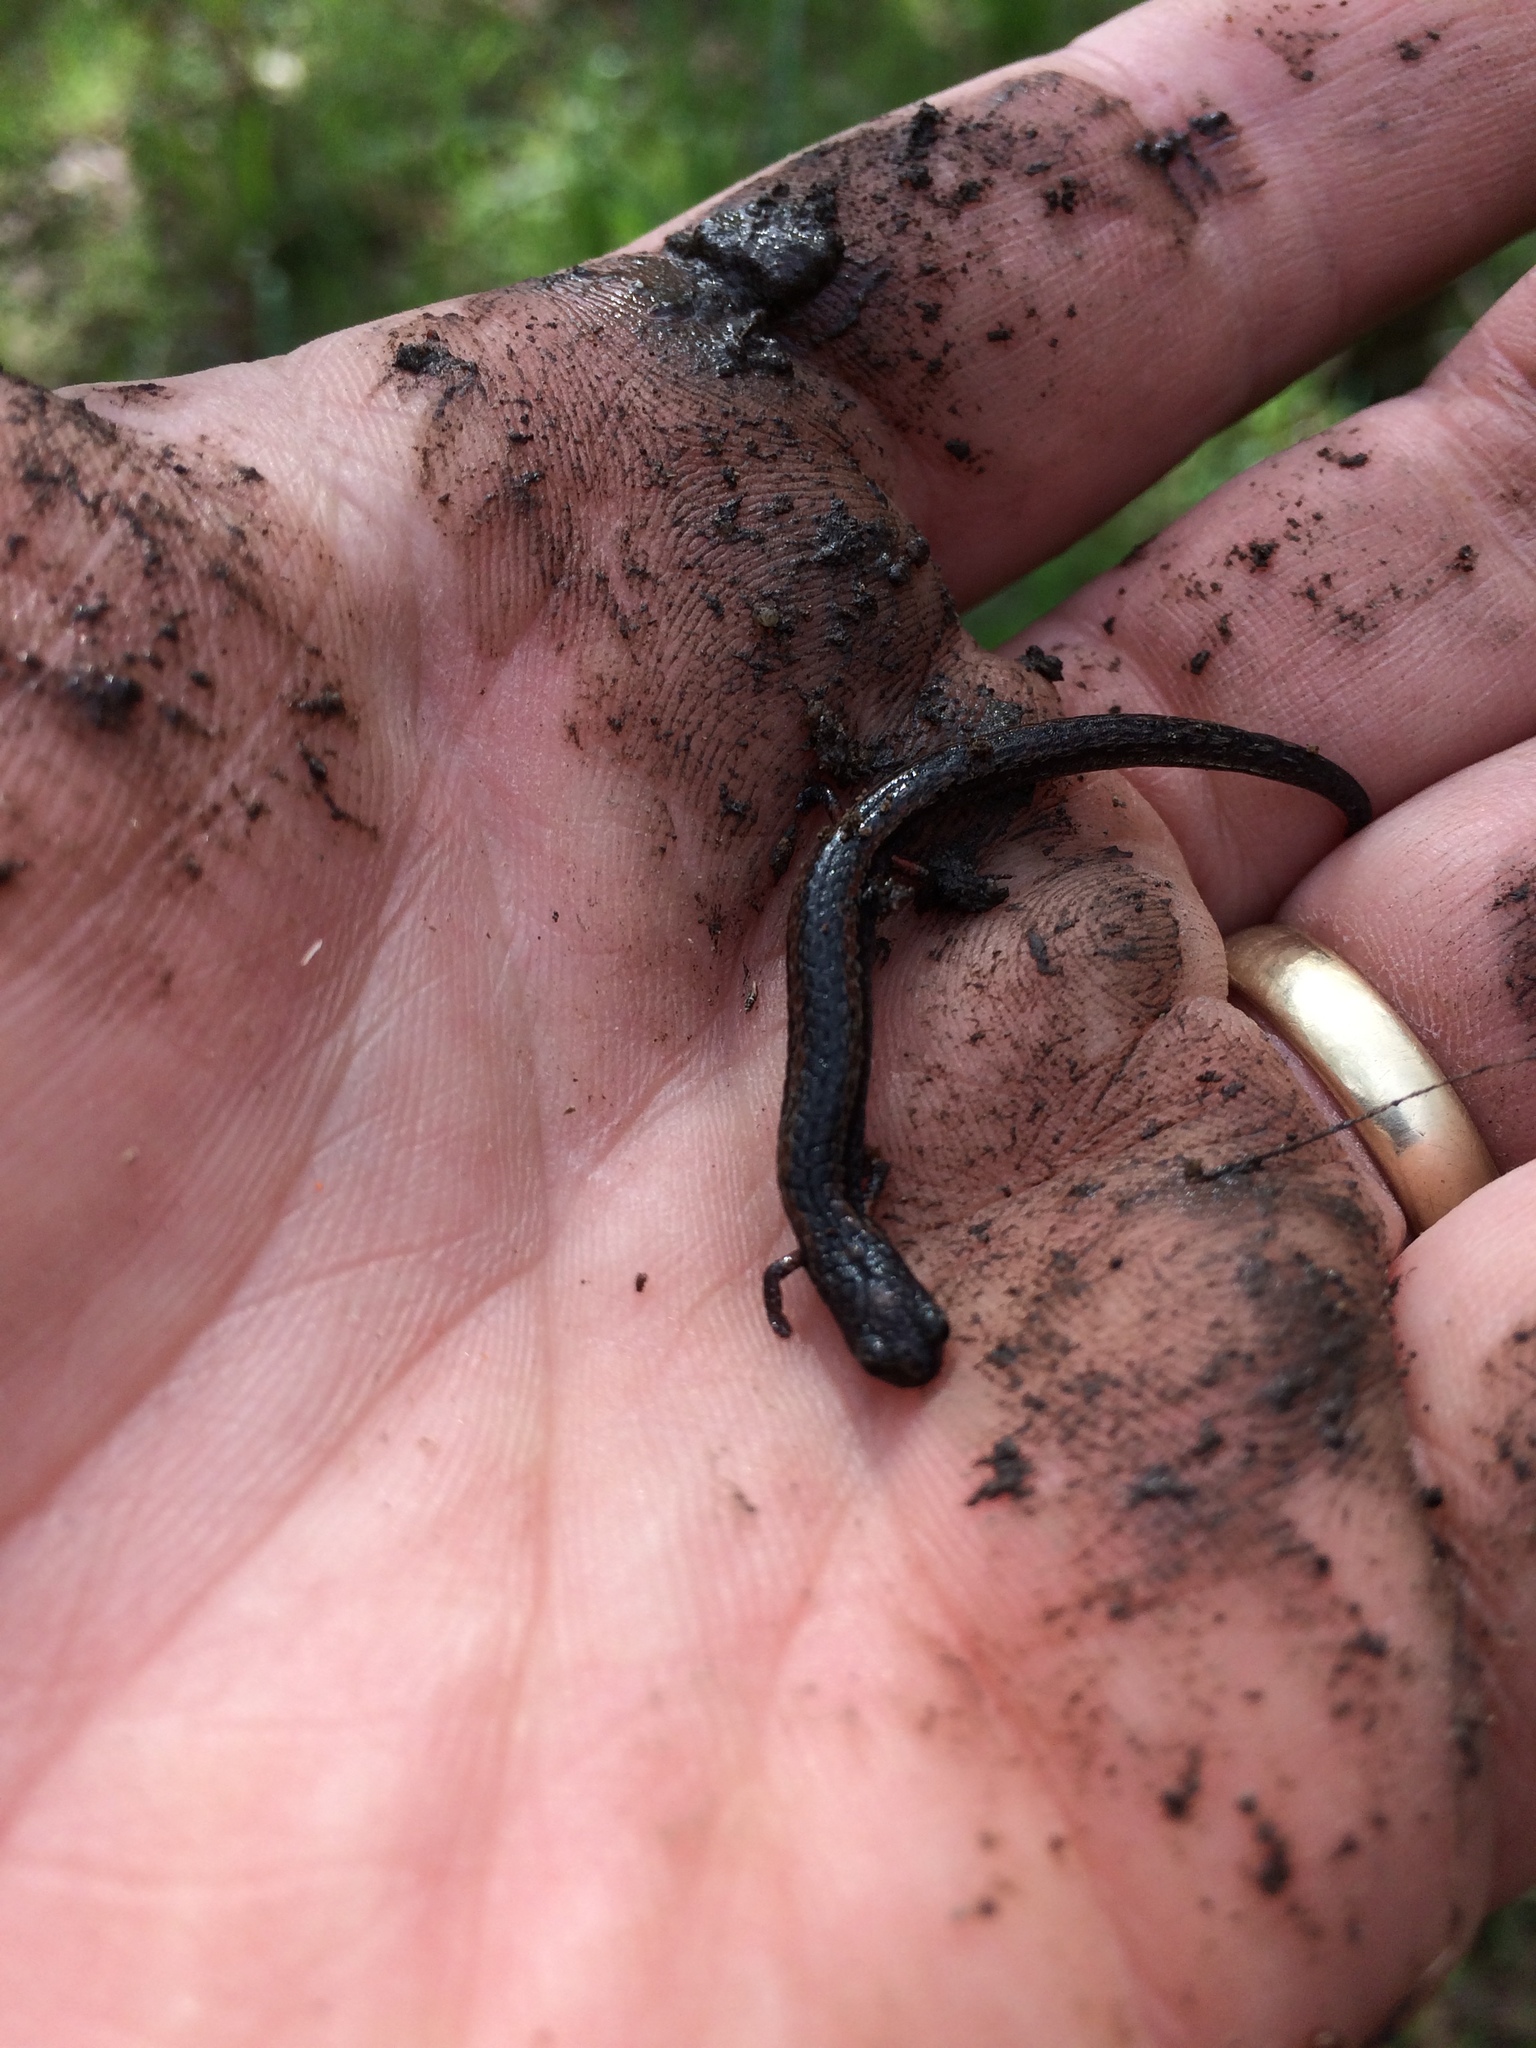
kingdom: Animalia
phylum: Chordata
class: Amphibia
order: Caudata
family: Plethodontidae
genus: Batrachoseps
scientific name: Batrachoseps attenuatus
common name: California slender salamander
